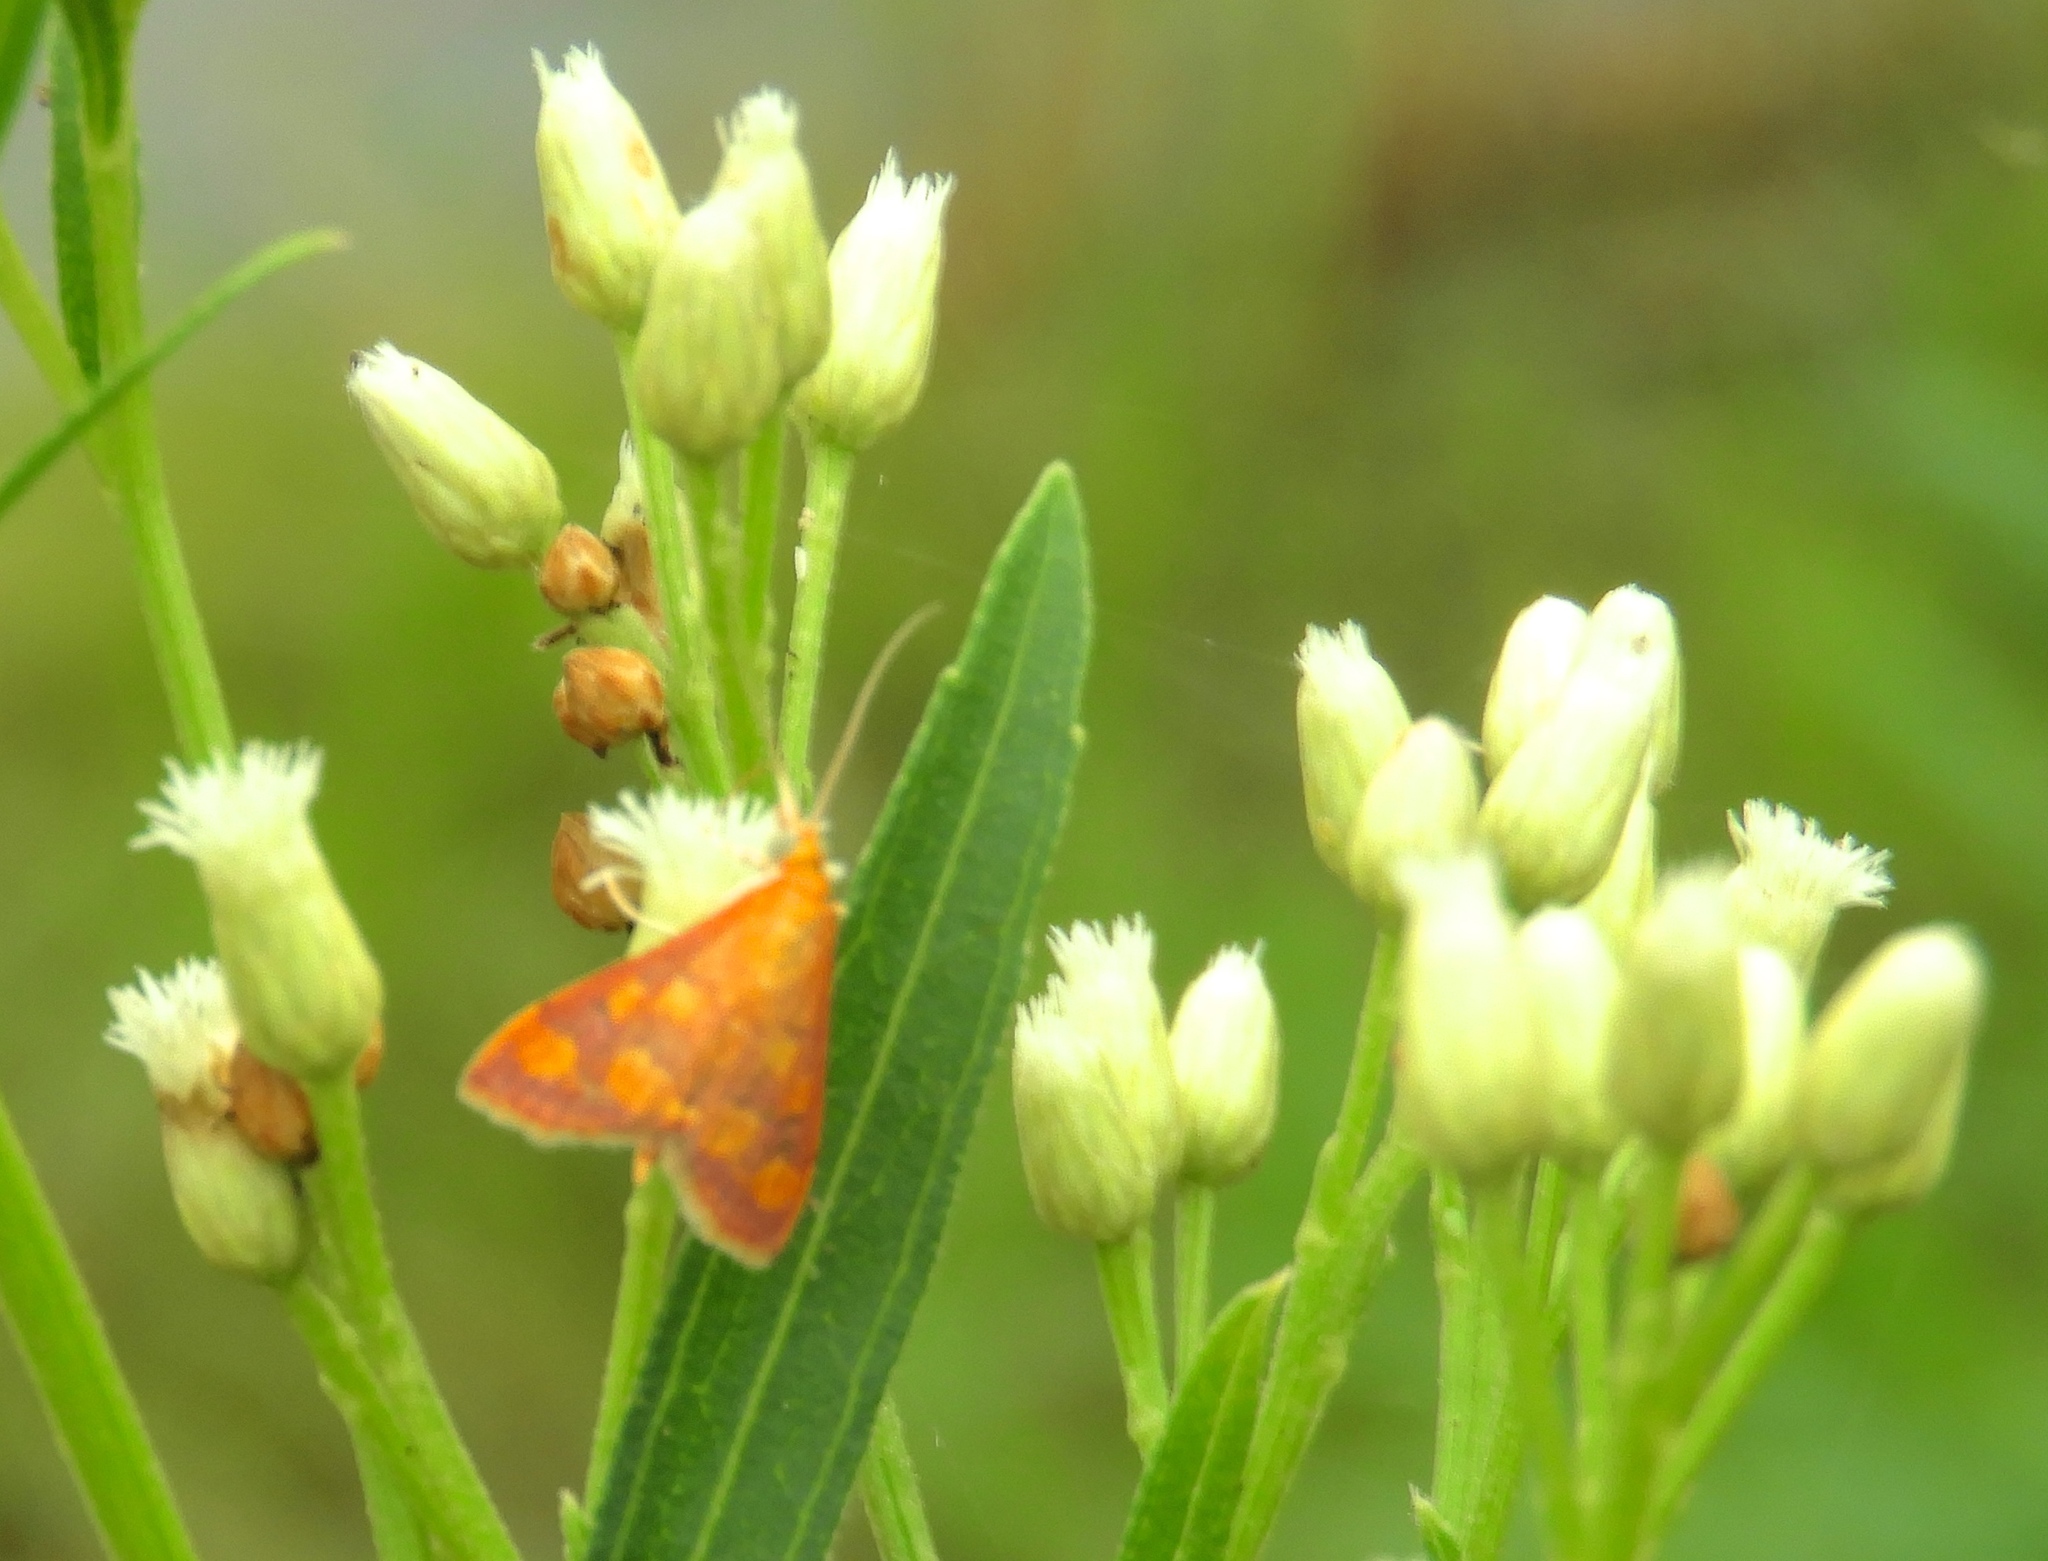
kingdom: Animalia
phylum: Arthropoda
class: Insecta
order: Lepidoptera
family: Crambidae
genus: Pyrausta
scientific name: Pyrausta
